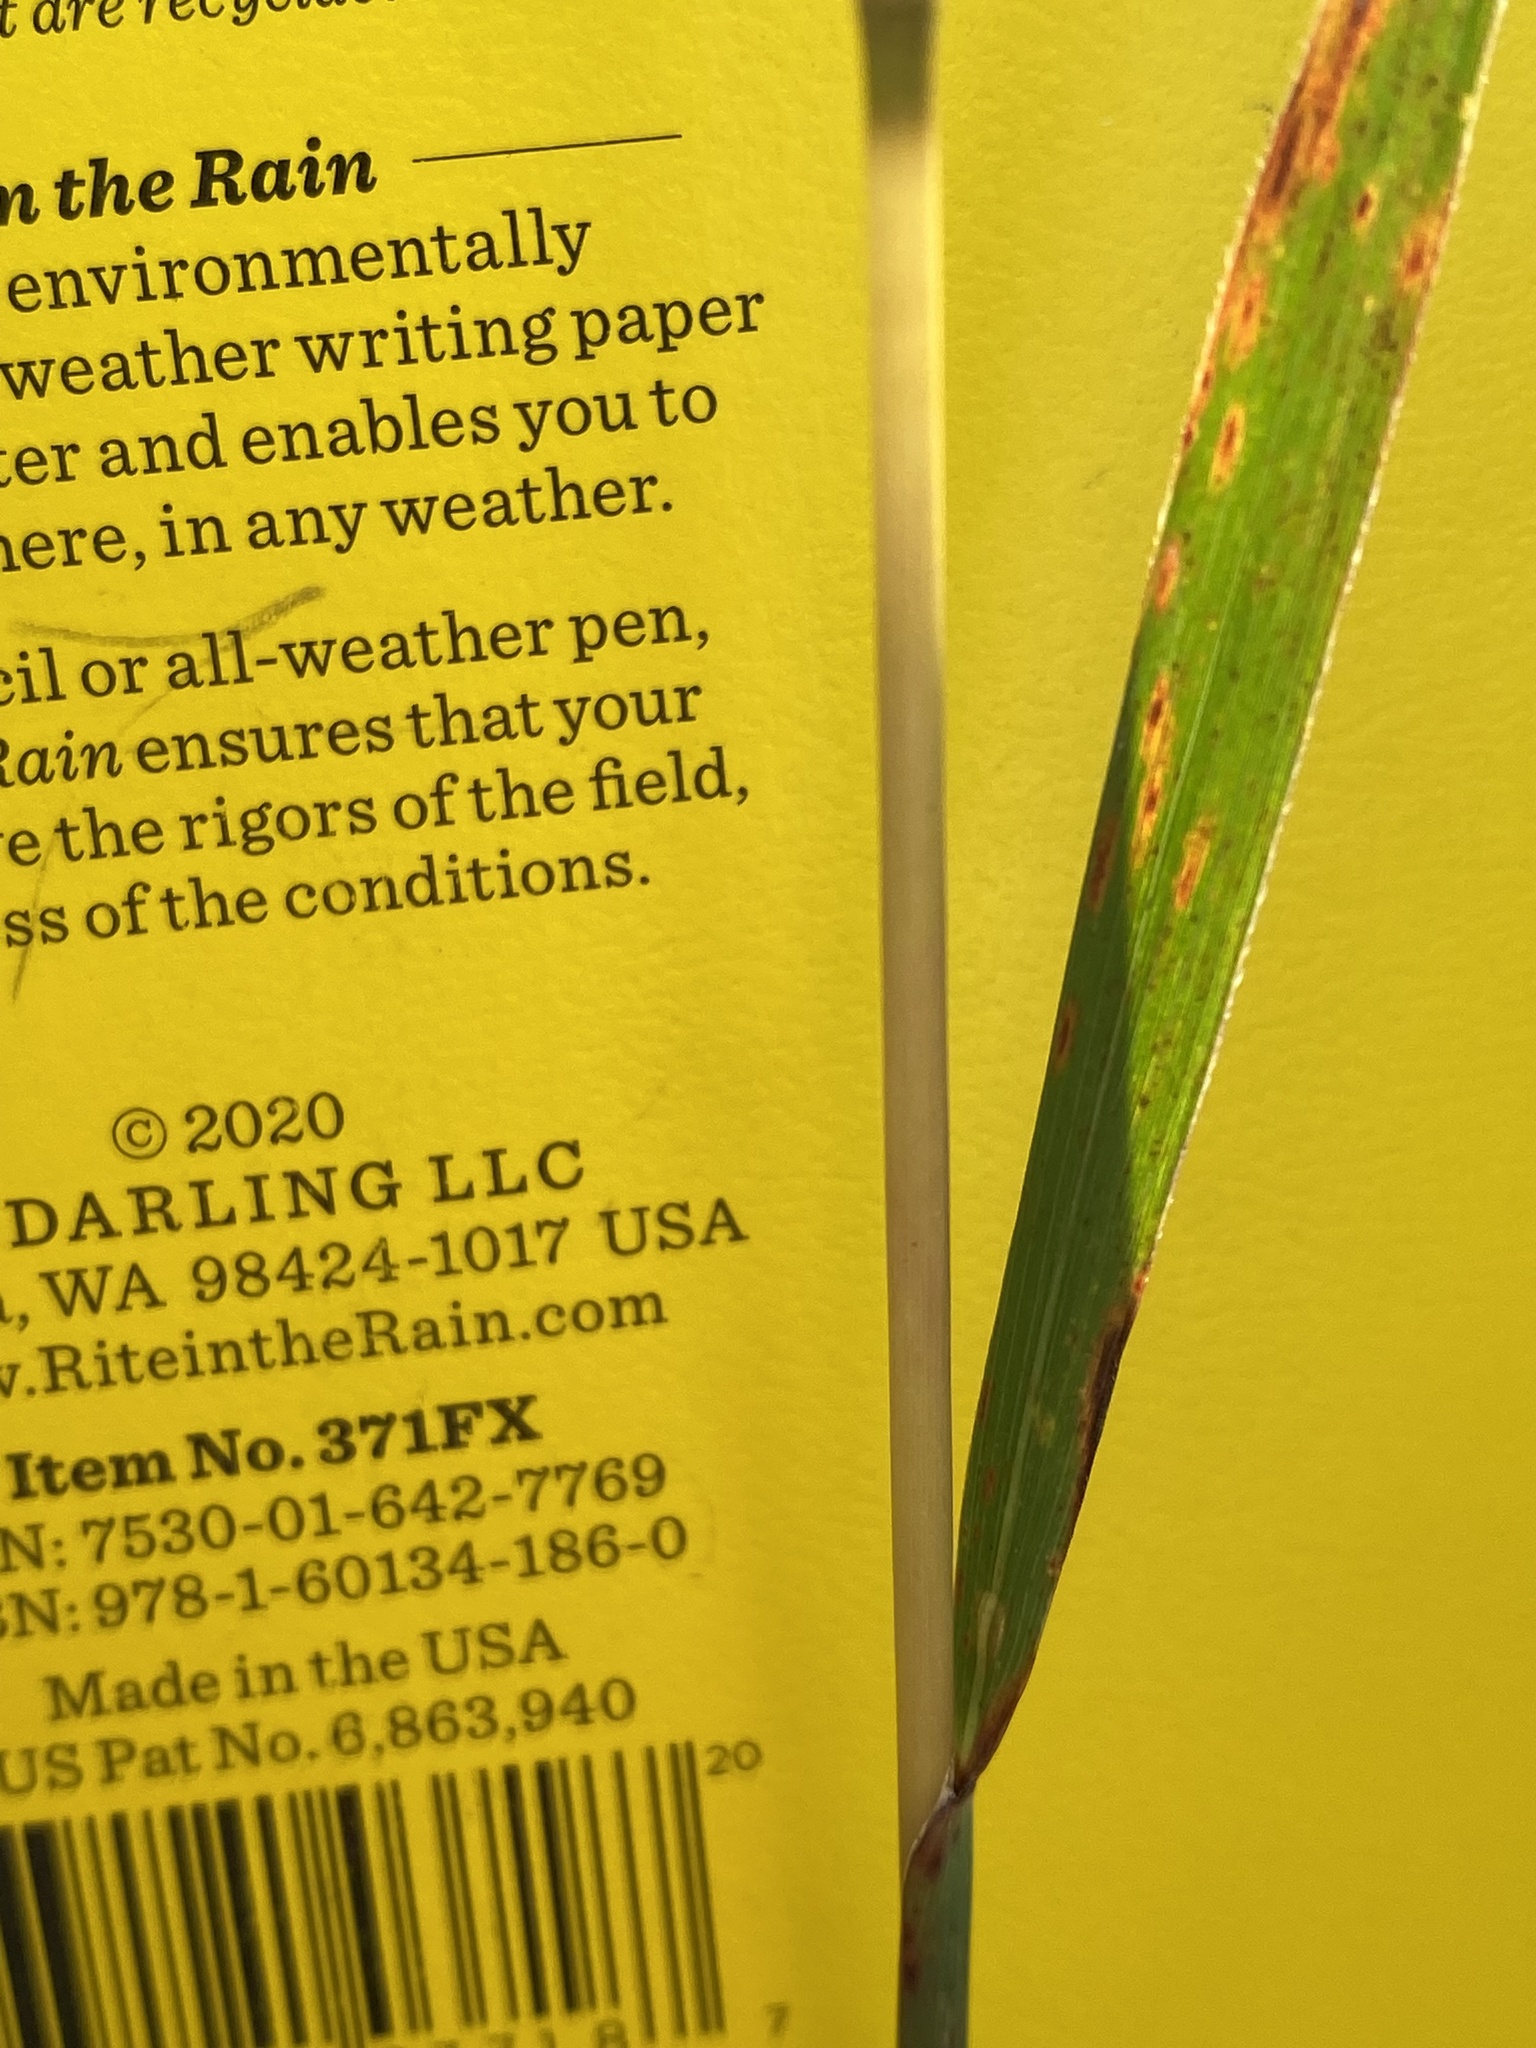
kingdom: Plantae
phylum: Tracheophyta
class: Liliopsida
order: Poales
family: Poaceae
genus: Sorghastrum
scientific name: Sorghastrum nutans
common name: Indian grass
